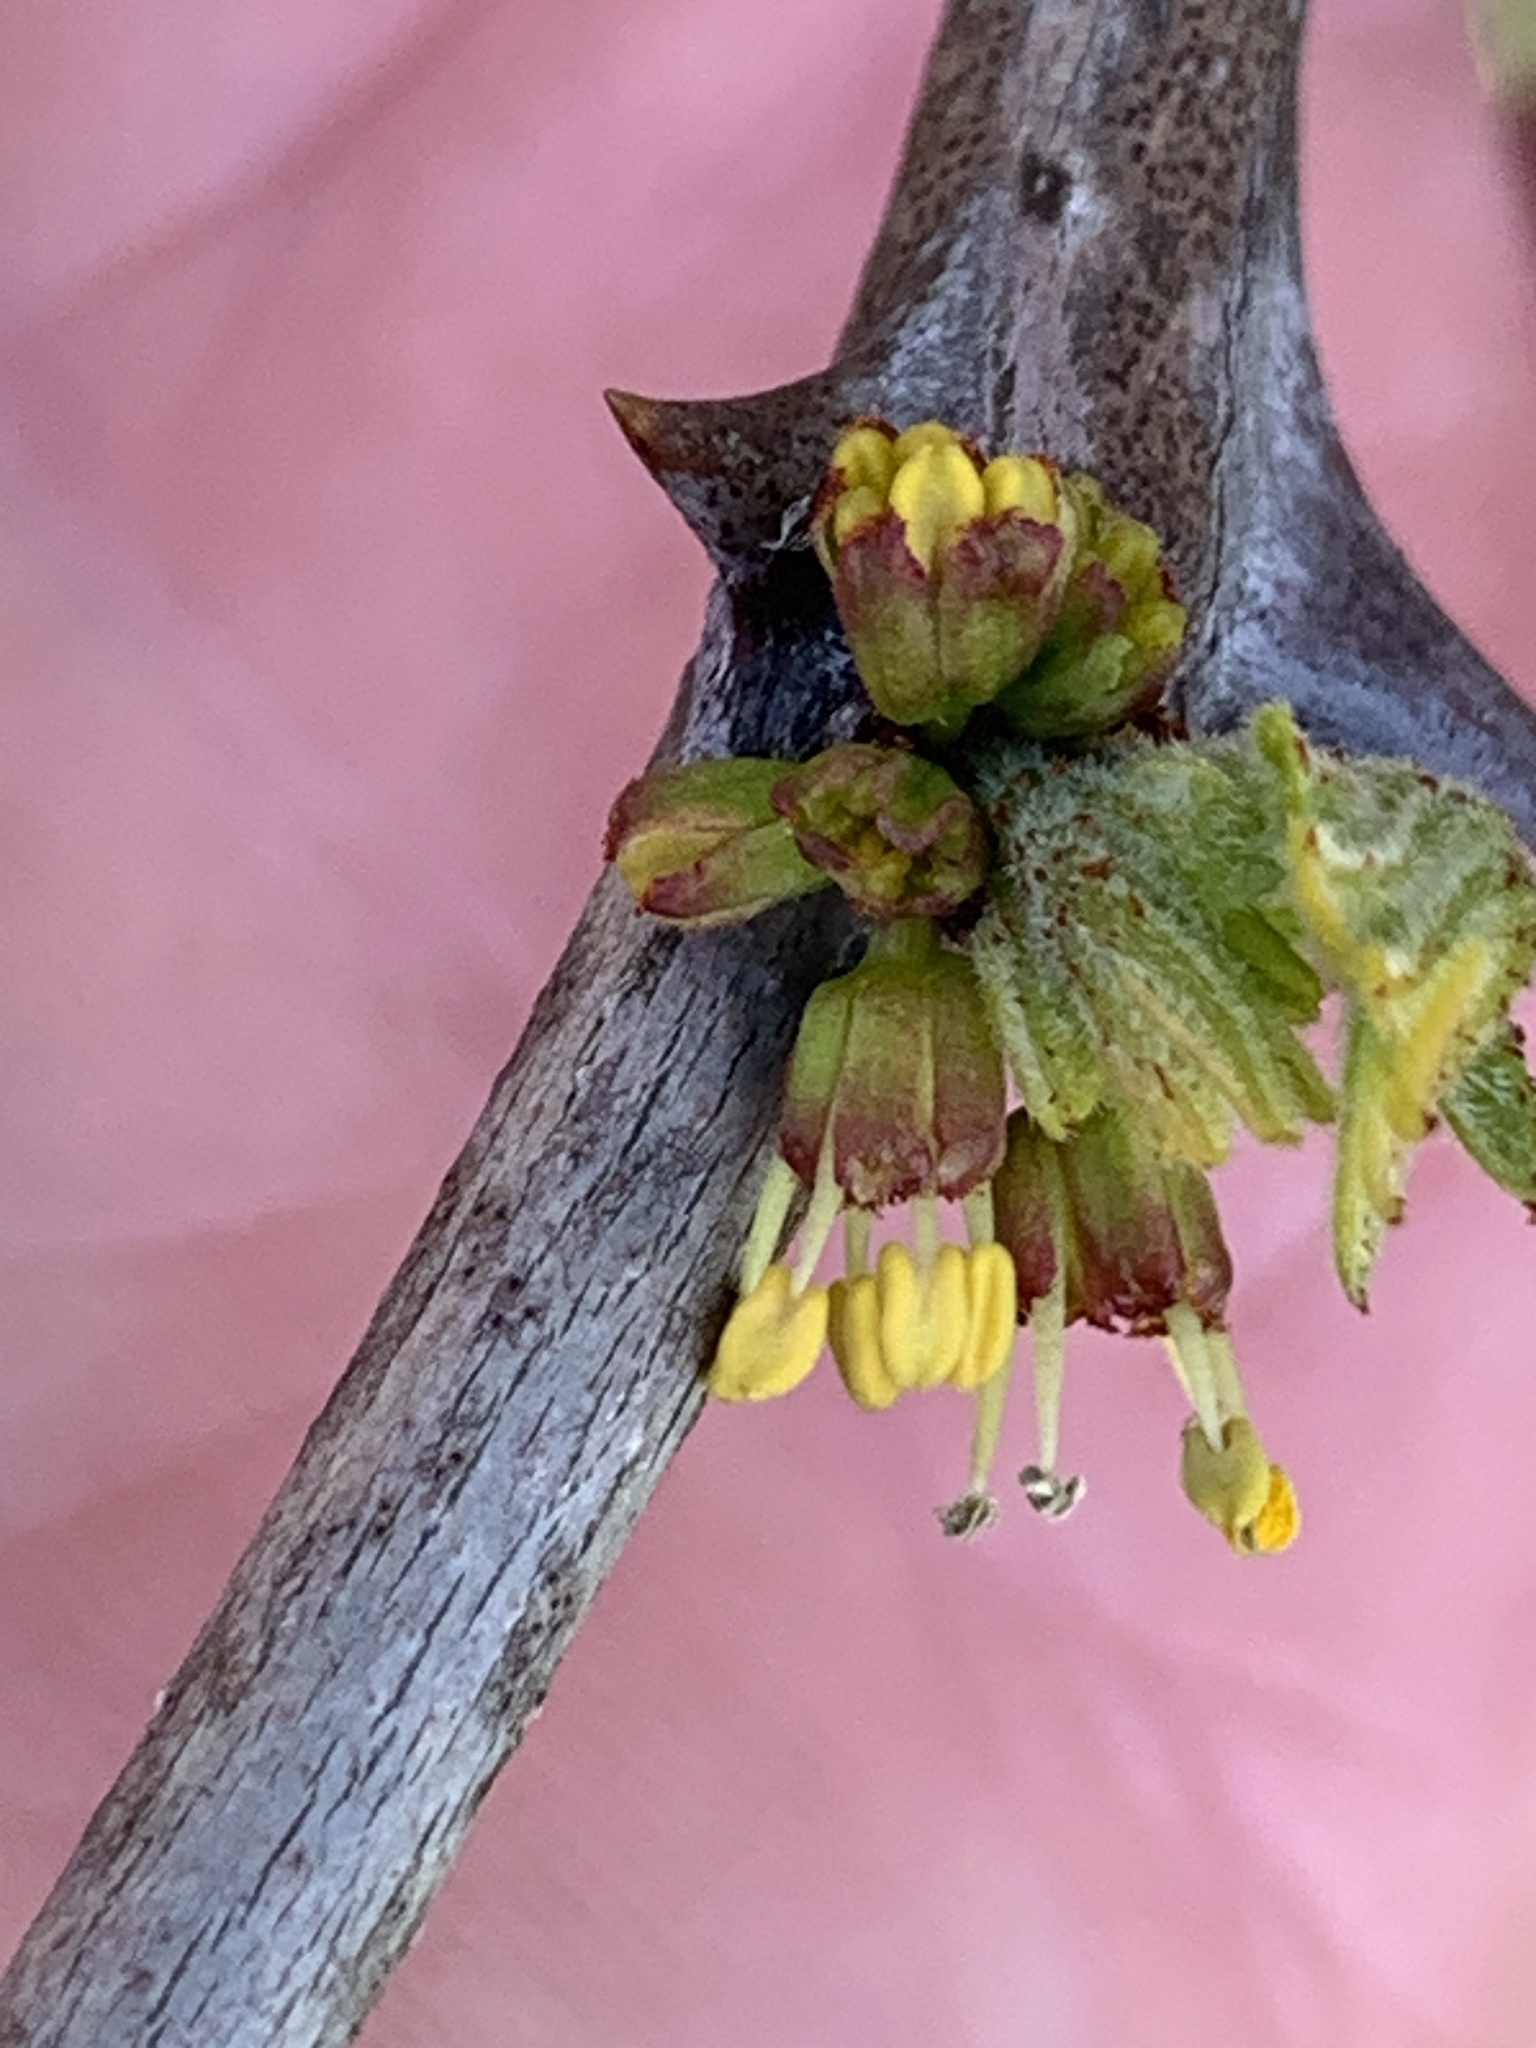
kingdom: Plantae
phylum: Tracheophyta
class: Magnoliopsida
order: Sapindales
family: Rutaceae
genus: Zanthoxylum
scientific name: Zanthoxylum americanum
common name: Northern prickly-ash
